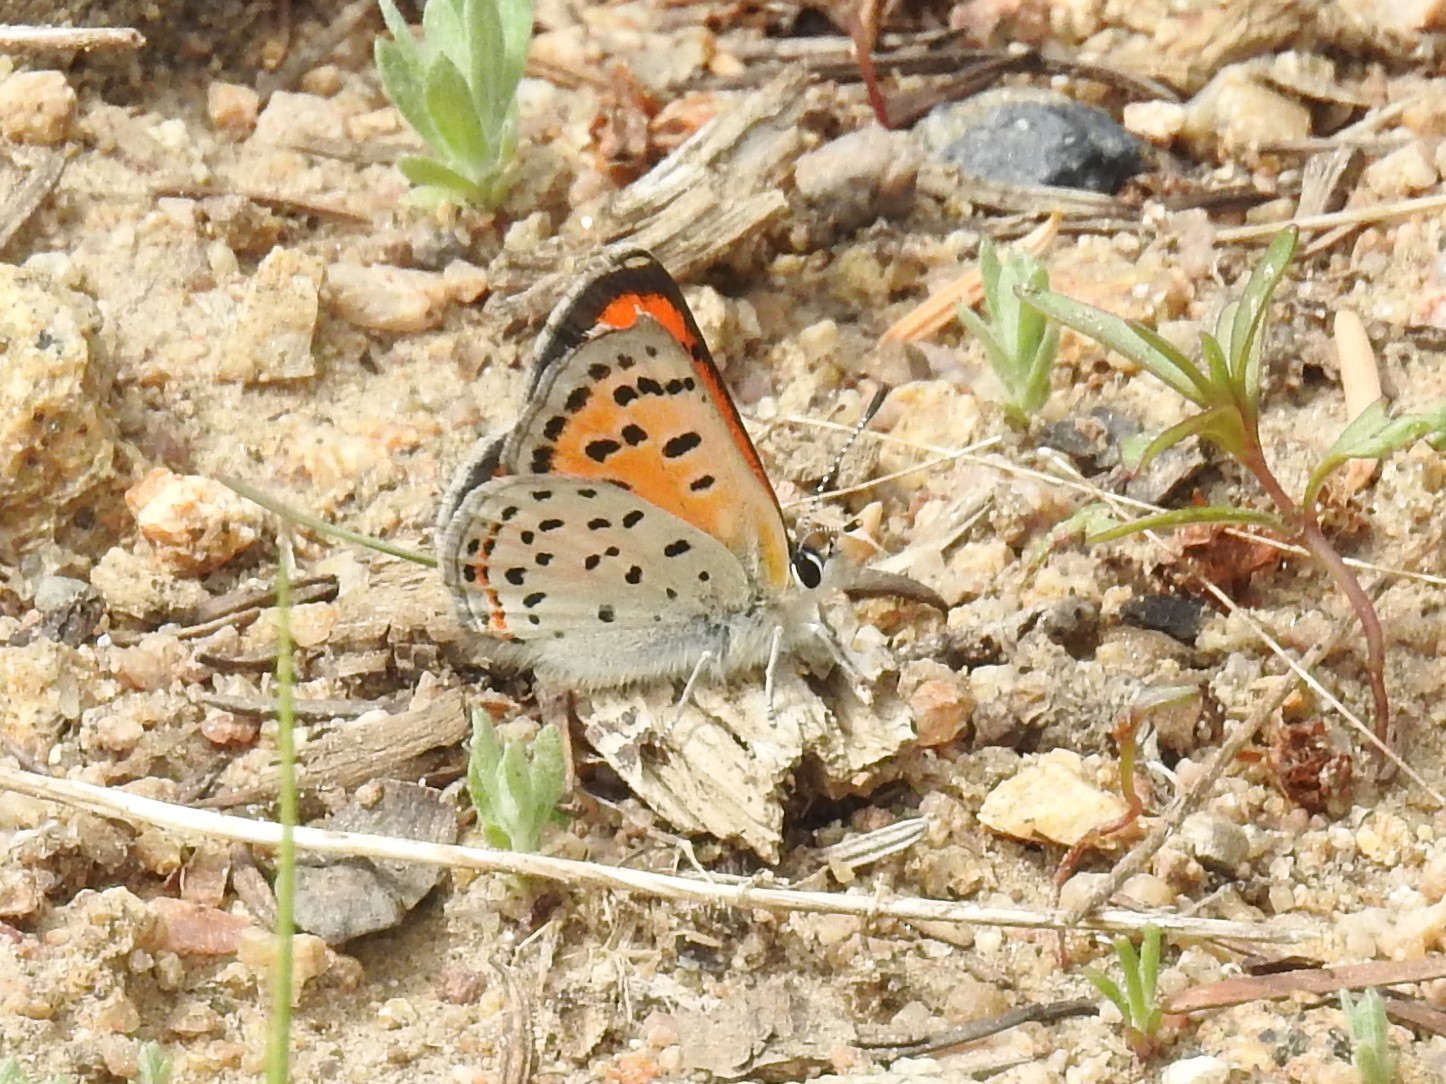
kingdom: Animalia
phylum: Arthropoda
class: Insecta
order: Lepidoptera
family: Lycaenidae
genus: Lycaena
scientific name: Lycaena cupreus
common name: Lustrous copper
